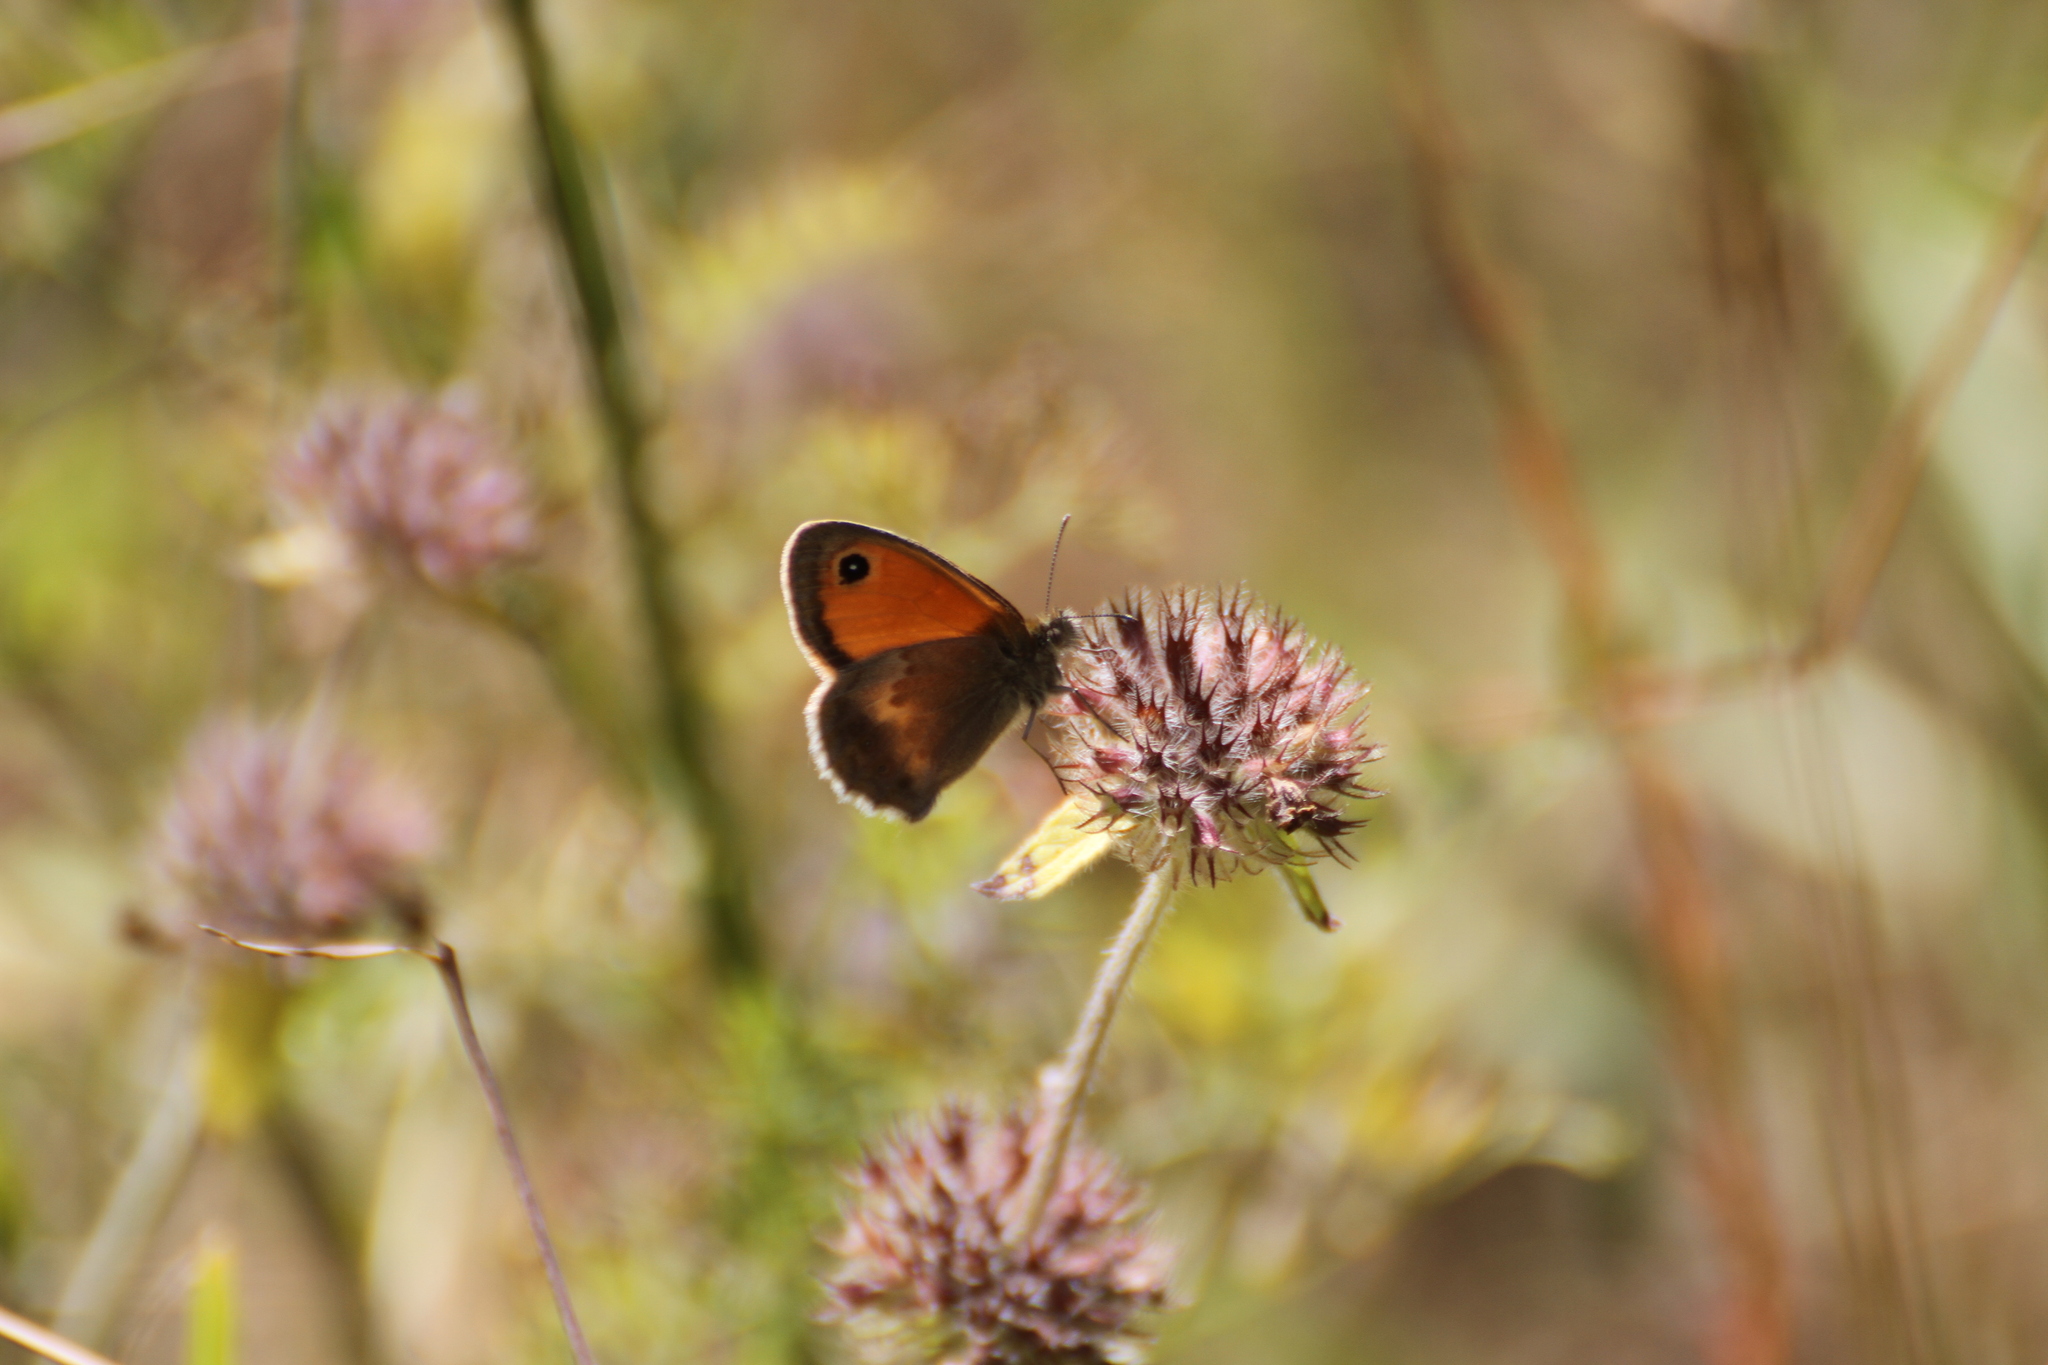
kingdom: Animalia
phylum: Arthropoda
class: Insecta
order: Lepidoptera
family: Nymphalidae
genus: Coenonympha
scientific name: Coenonympha pamphilus
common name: Small heath
